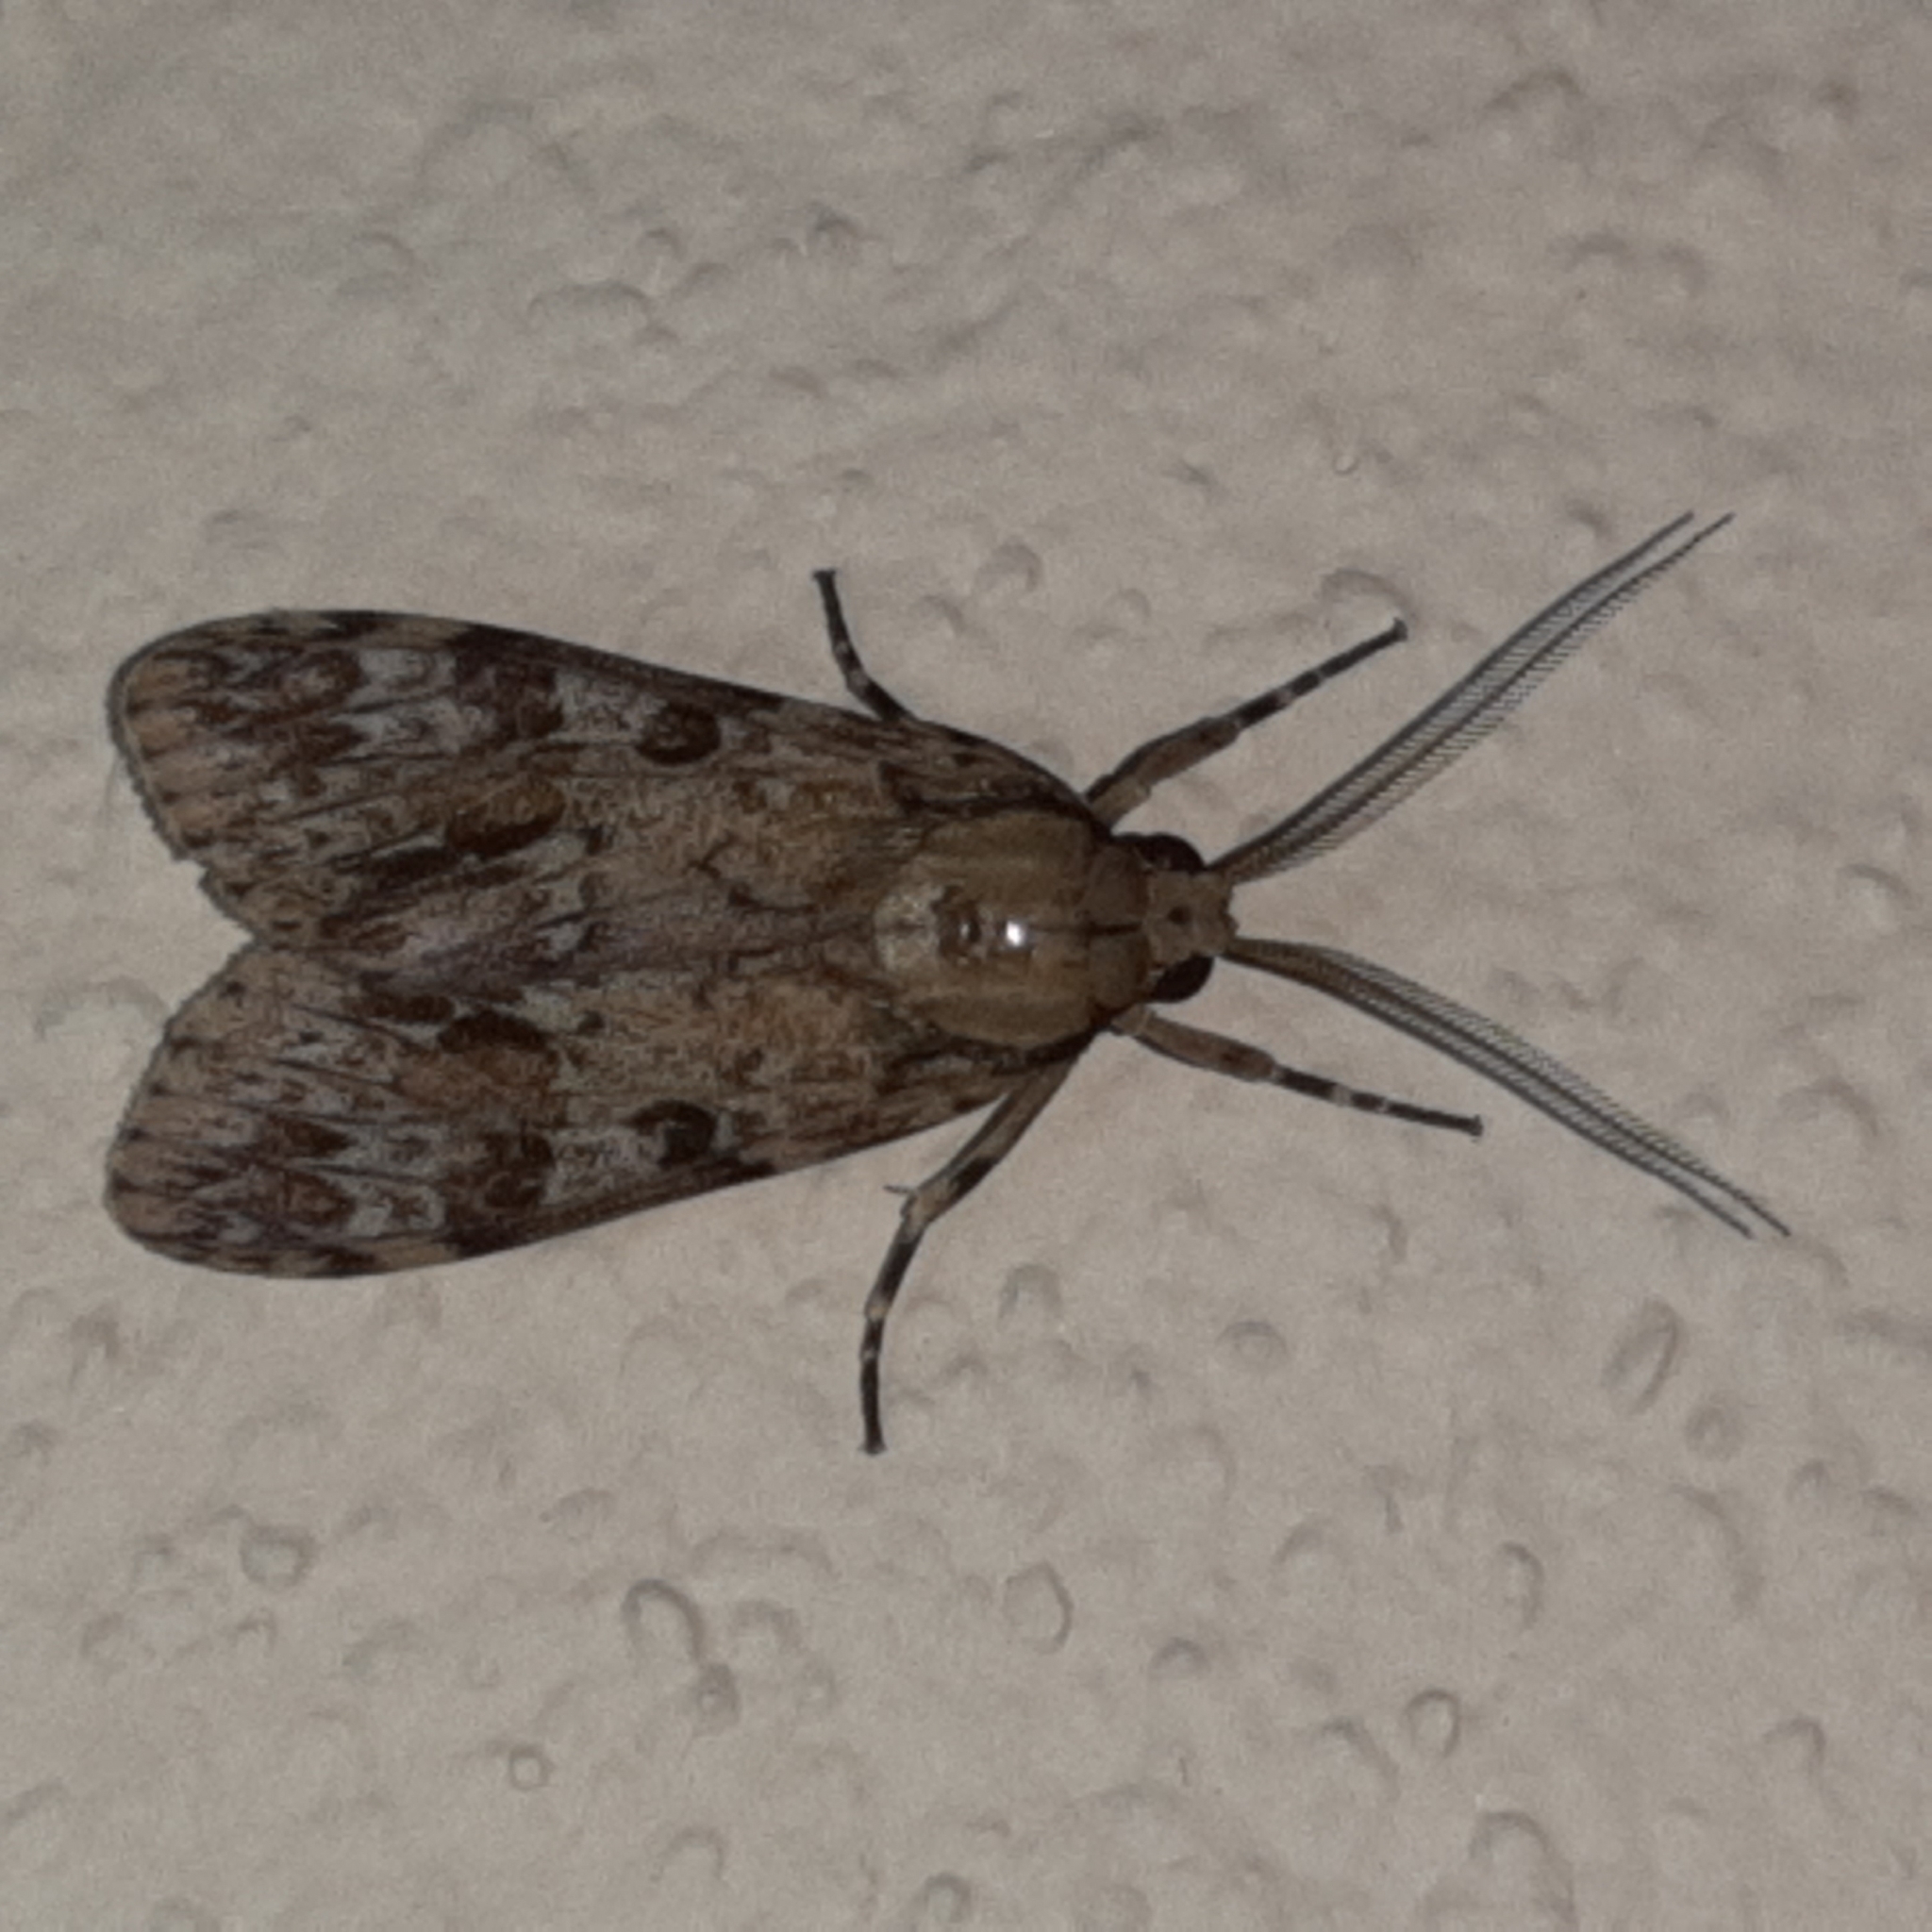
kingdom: Animalia
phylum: Arthropoda
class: Insecta
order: Lepidoptera
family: Erebidae
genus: Eucereon
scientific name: Eucereon maja
